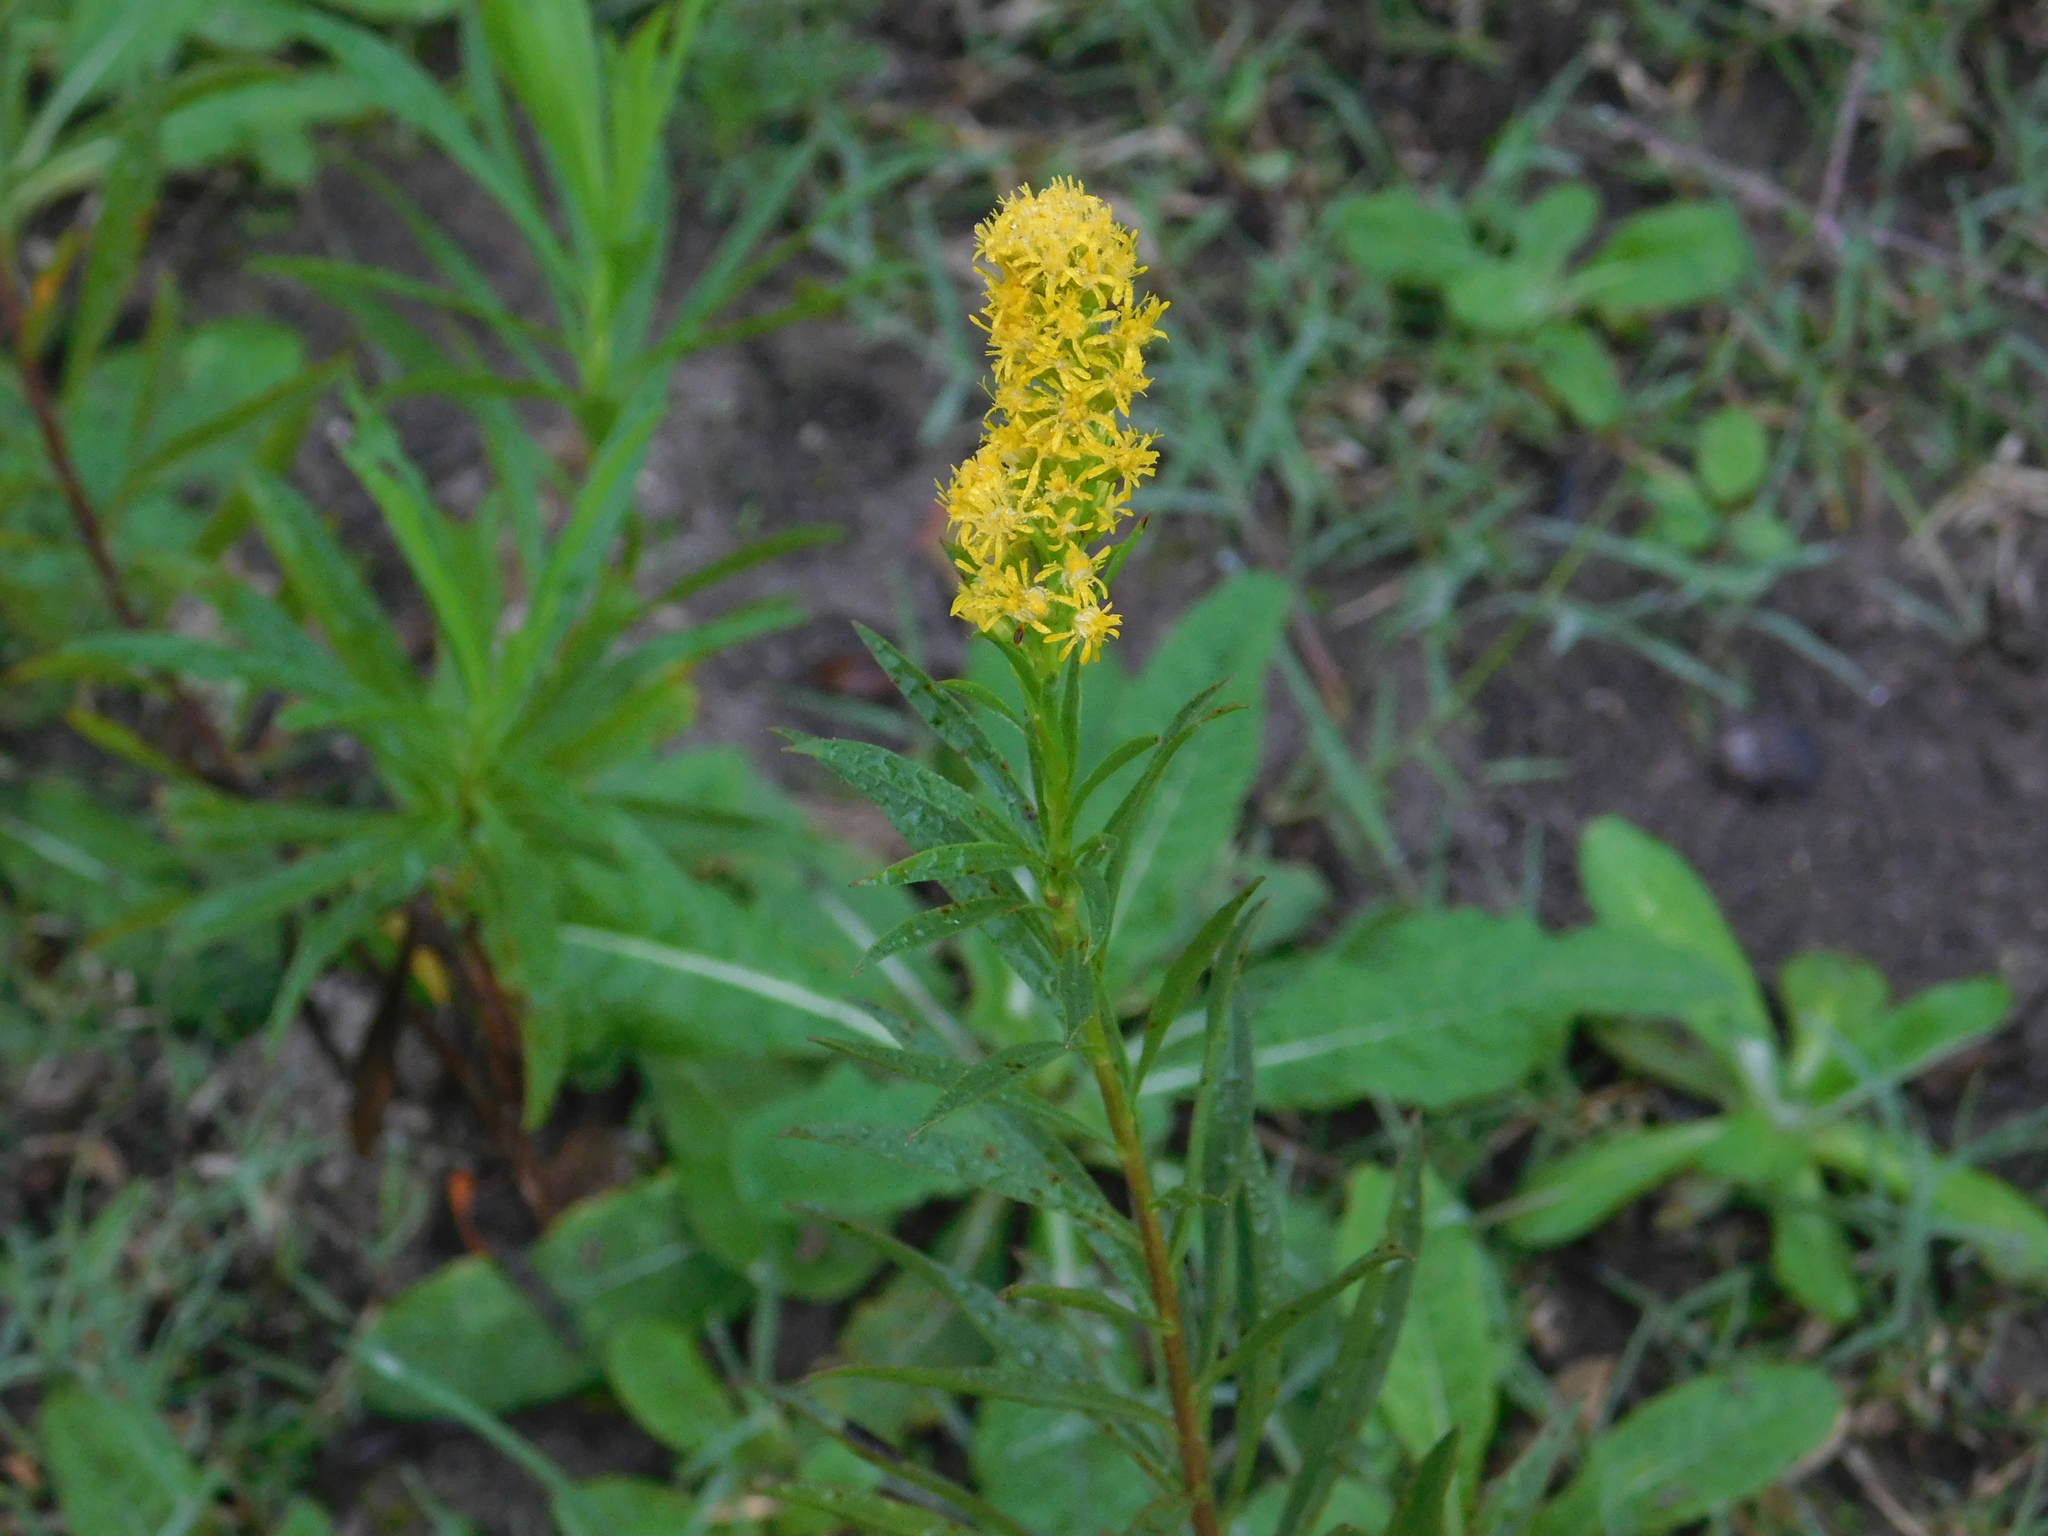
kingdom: Plantae
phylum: Tracheophyta
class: Magnoliopsida
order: Asterales
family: Asteraceae
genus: Solidago
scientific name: Solidago chilensis
